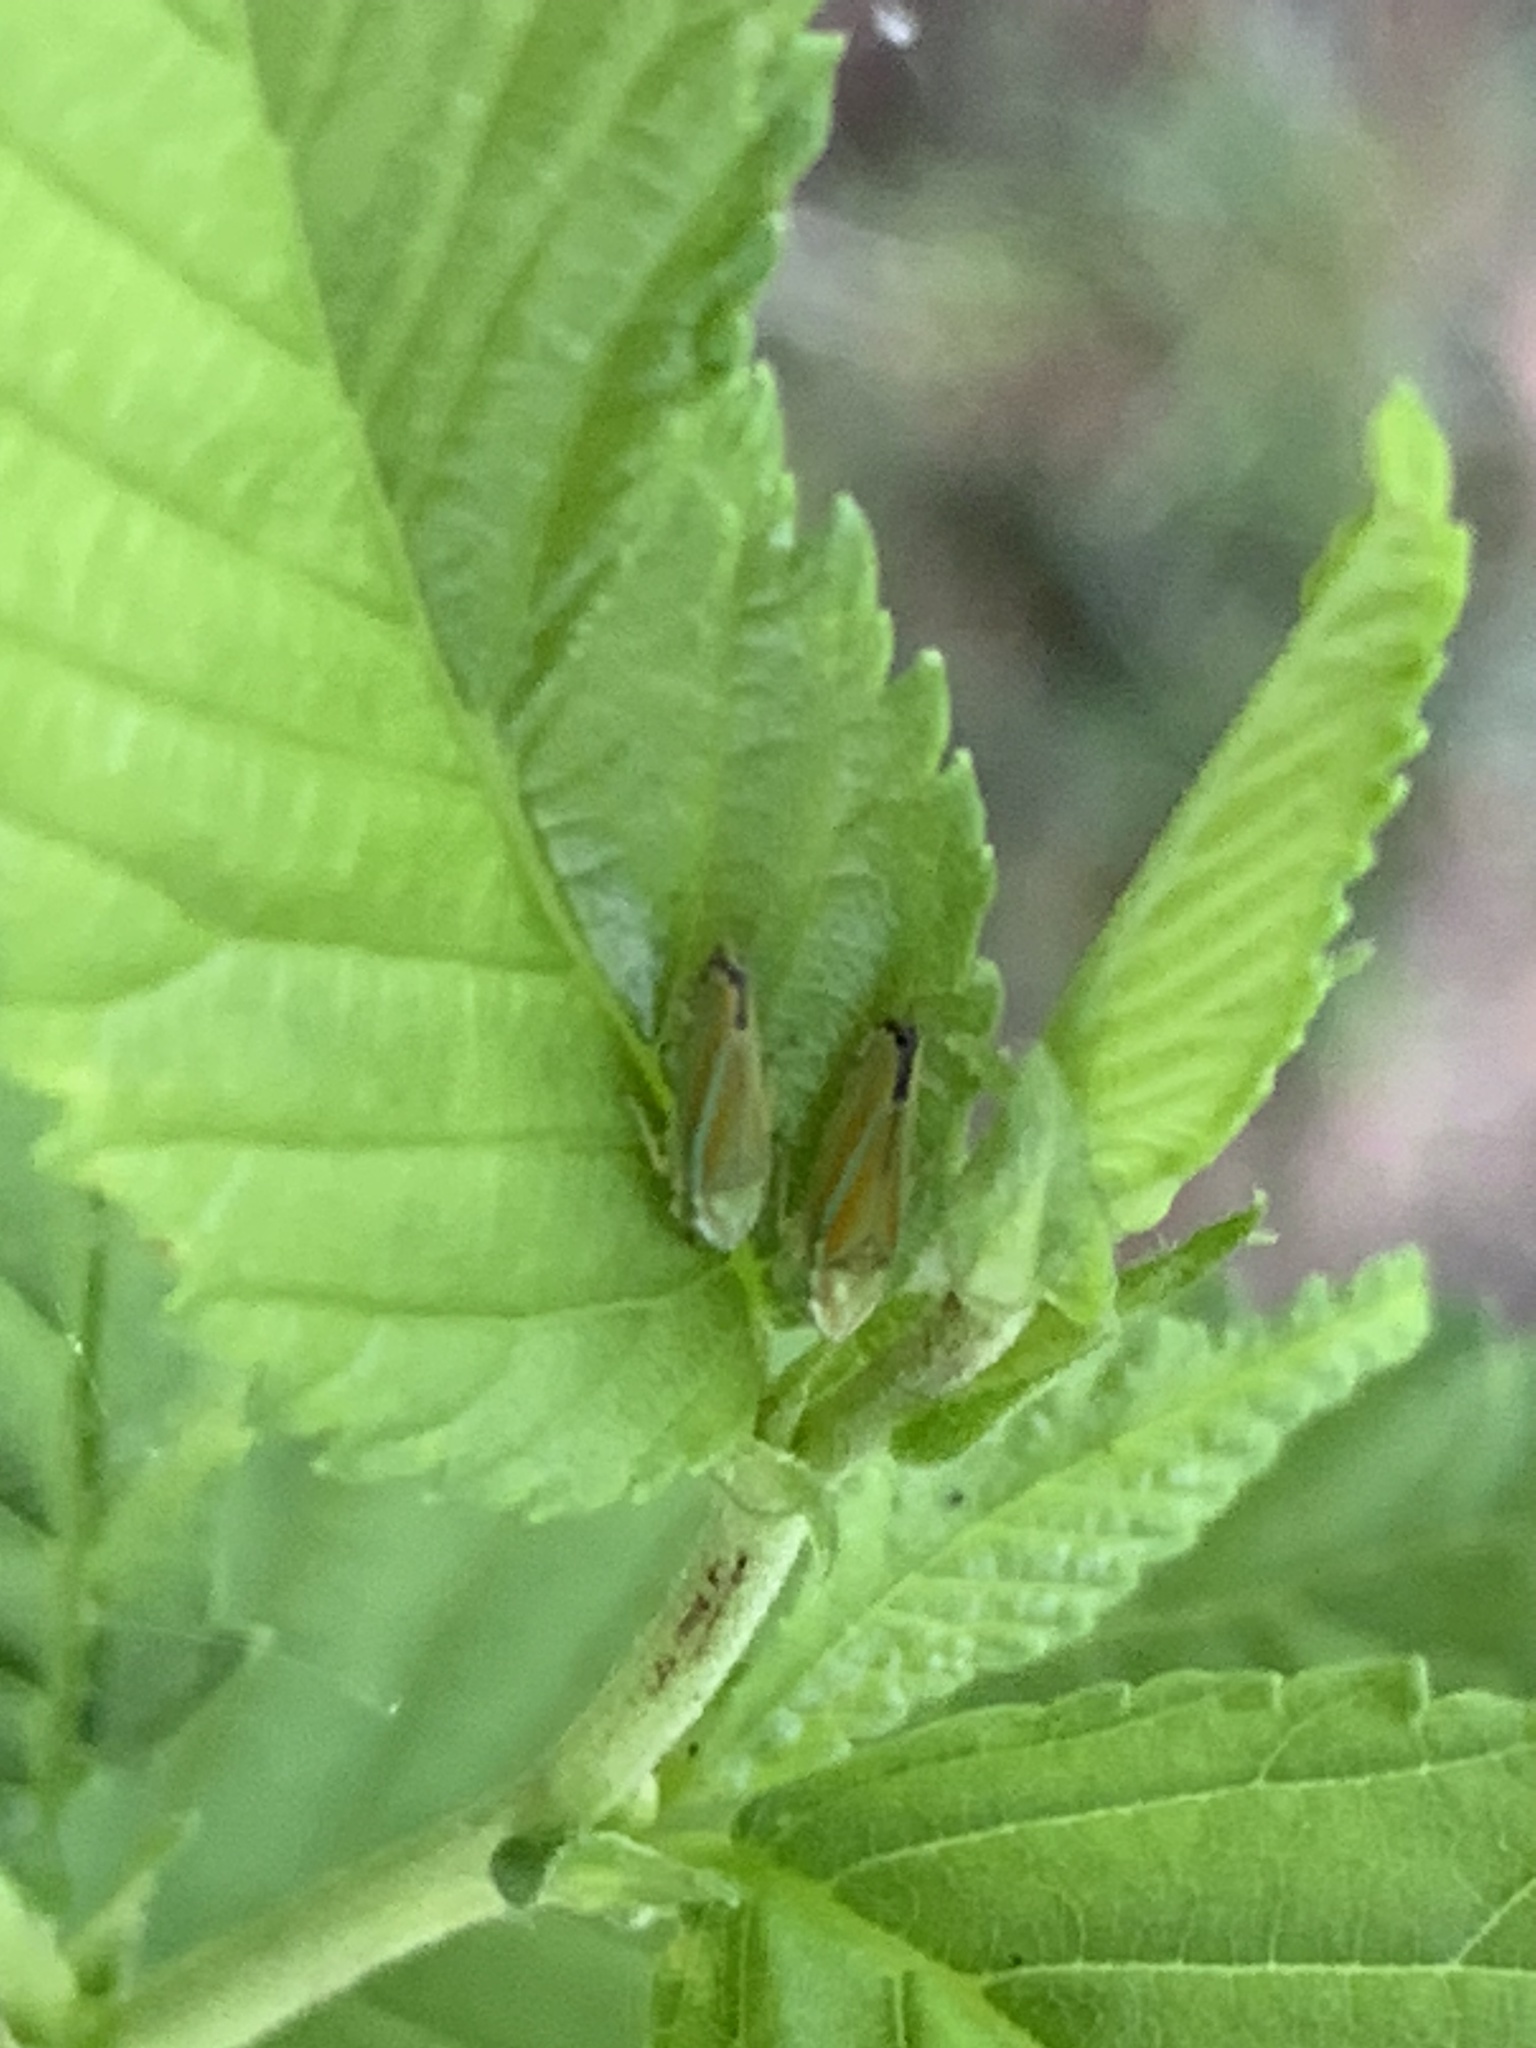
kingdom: Animalia
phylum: Arthropoda
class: Insecta
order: Hemiptera
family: Cicadellidae
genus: Graphocephala
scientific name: Graphocephala versuta
